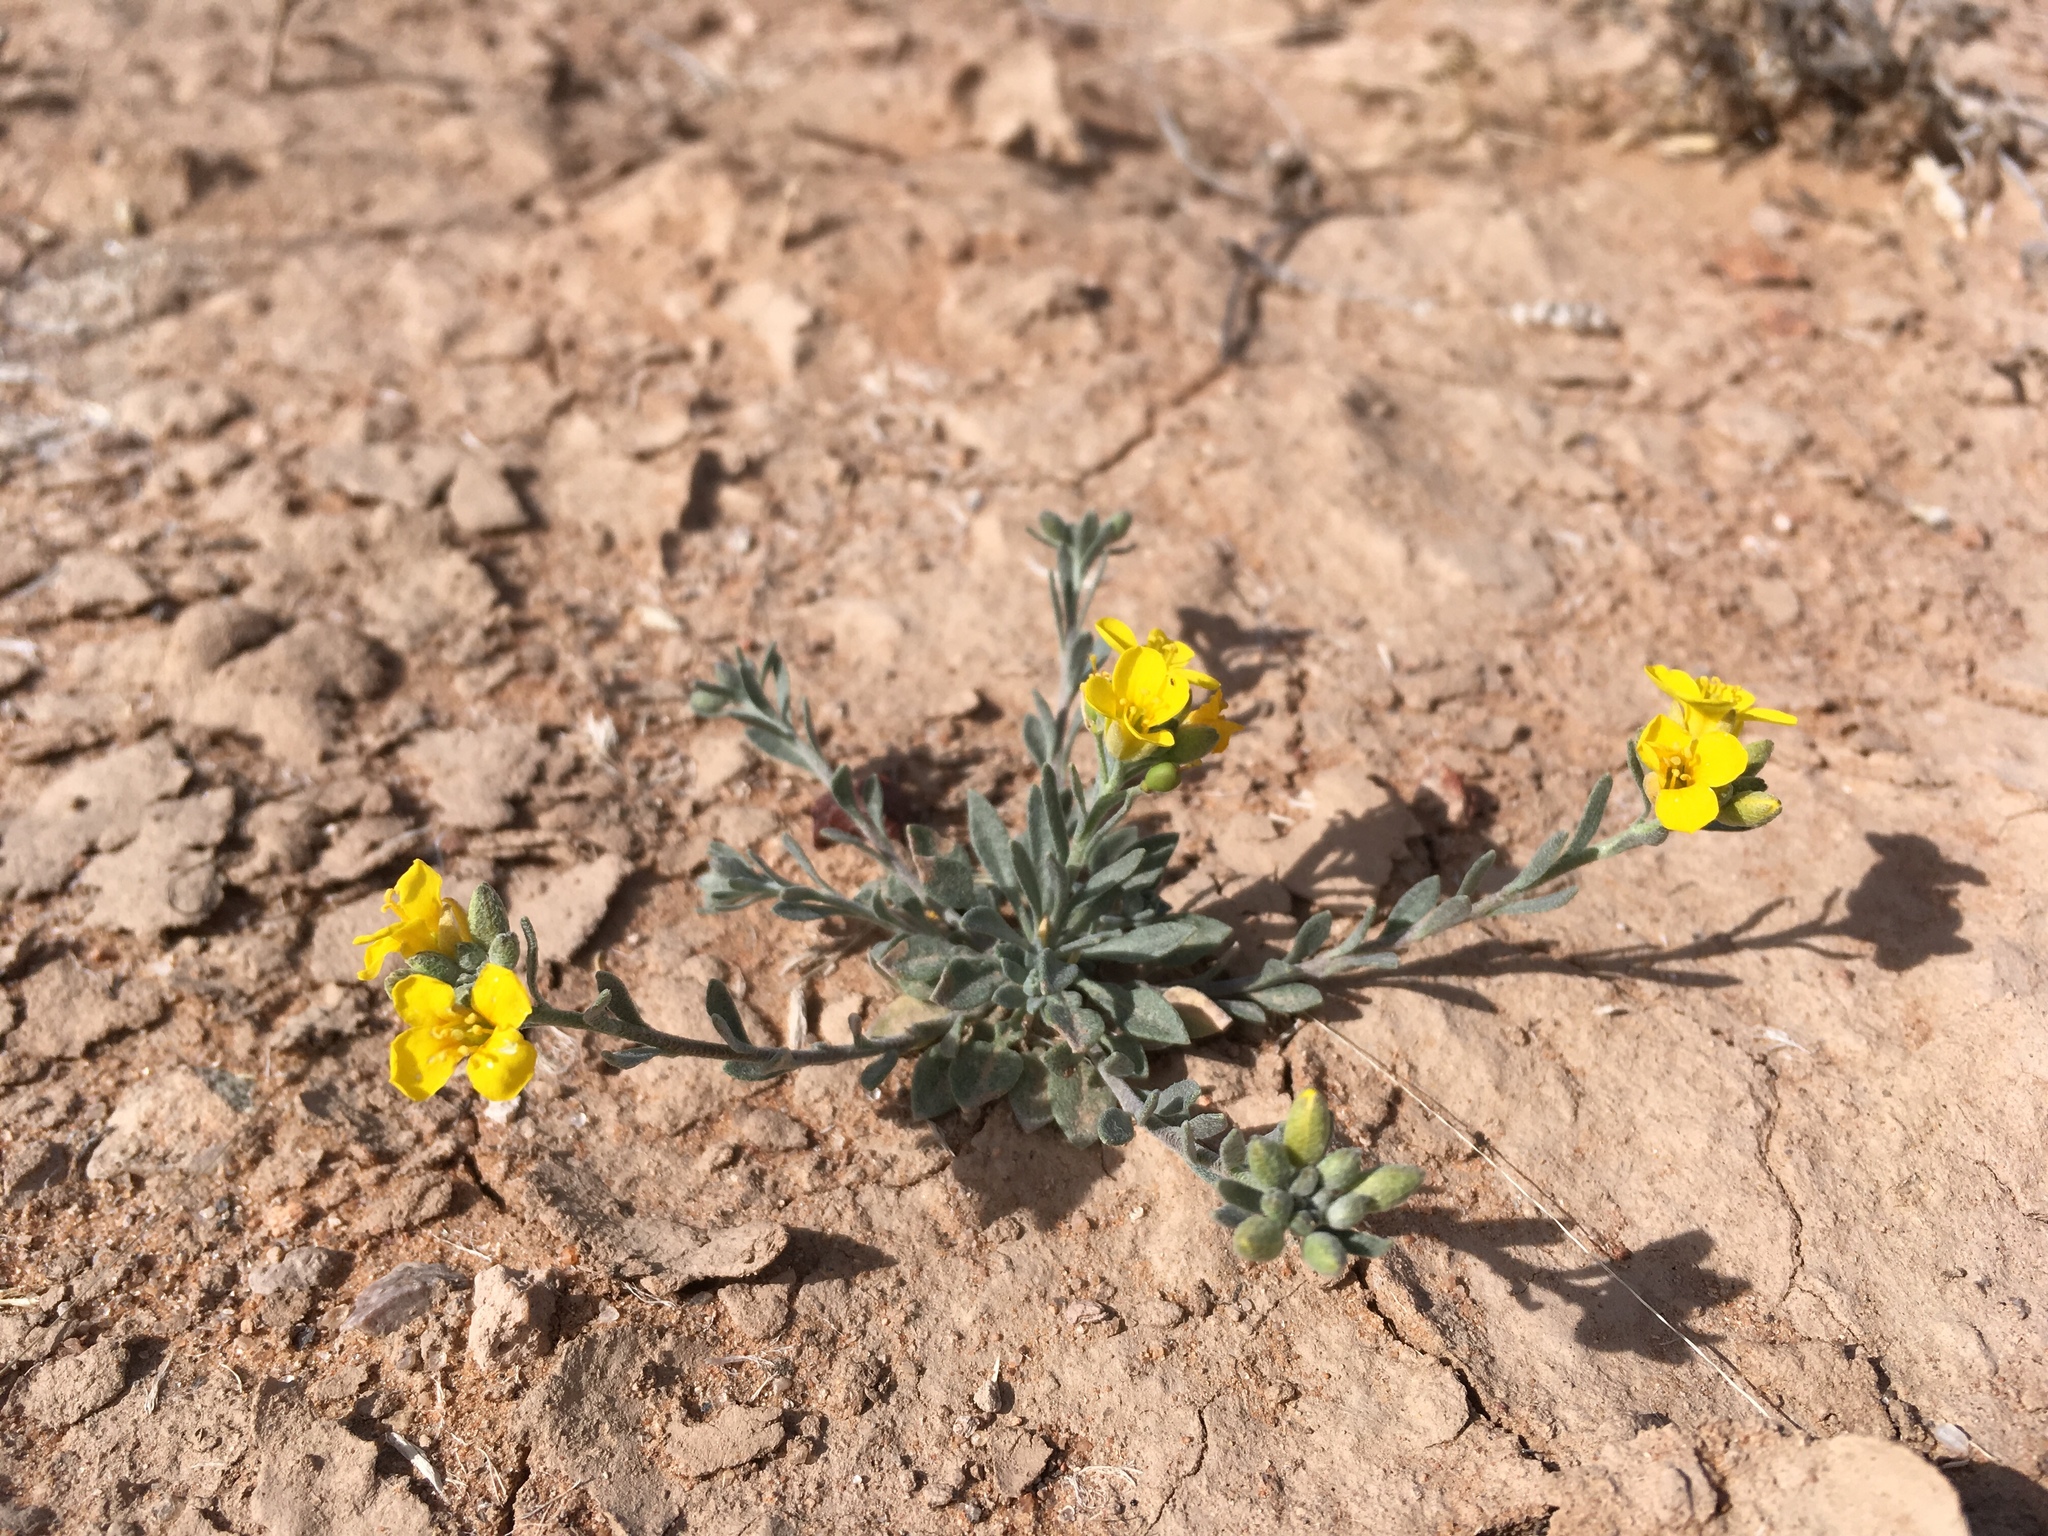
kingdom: Plantae
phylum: Tracheophyta
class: Magnoliopsida
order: Brassicales
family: Brassicaceae
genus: Physaria
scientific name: Physaria gordonii
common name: Gordon's bladderpod
